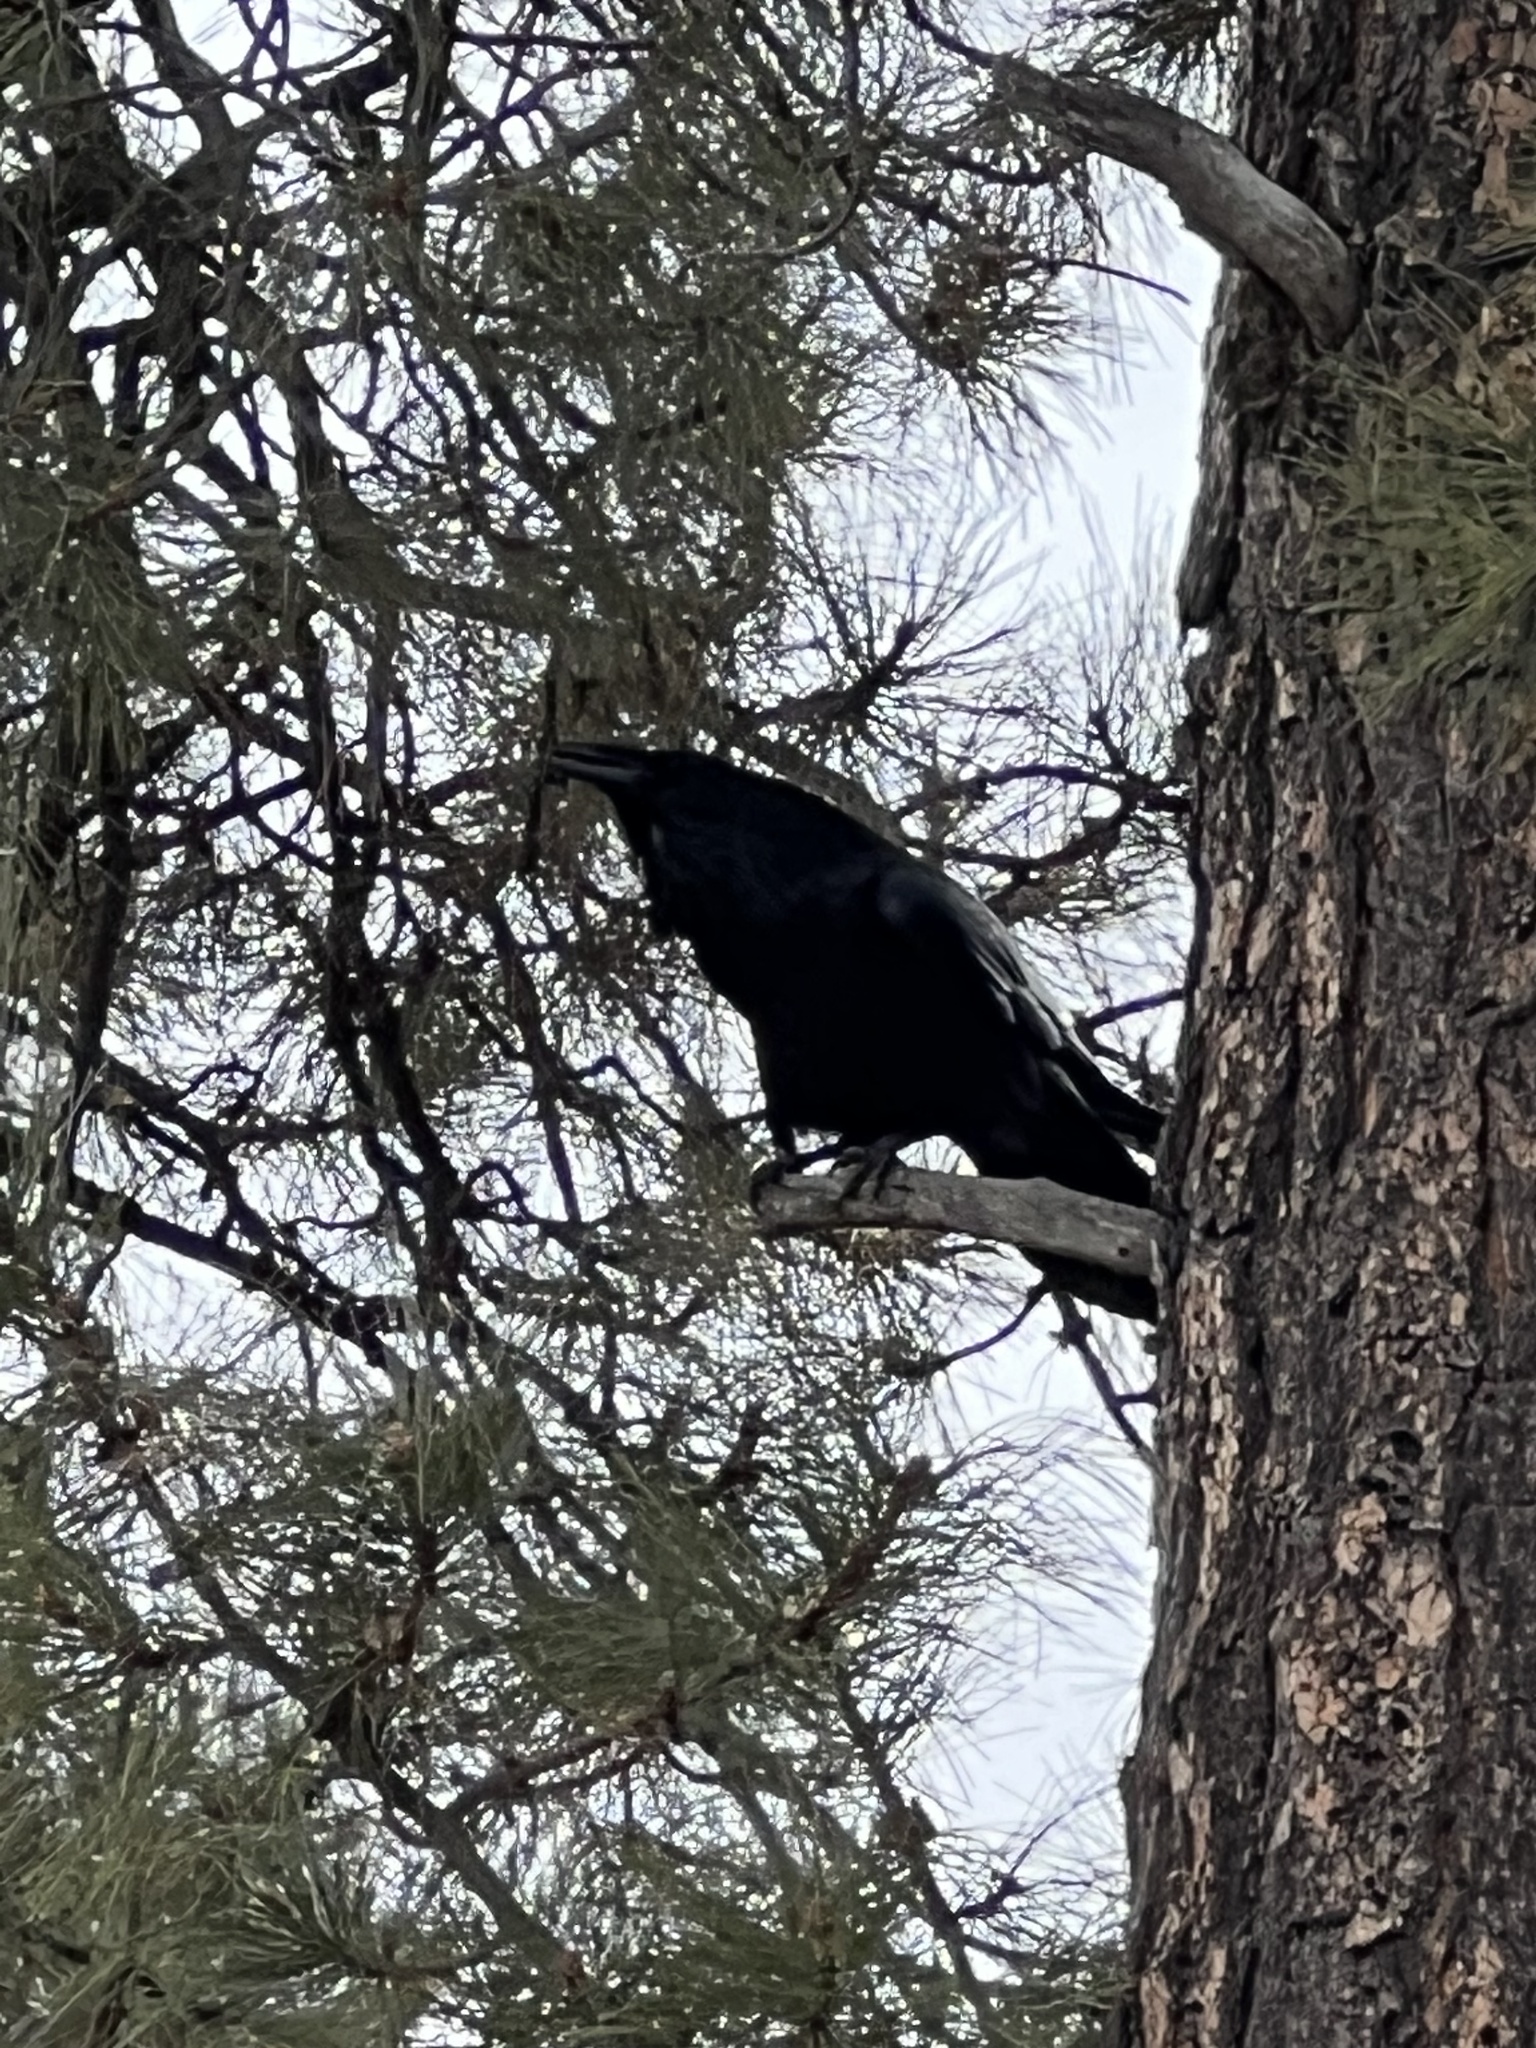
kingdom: Animalia
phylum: Chordata
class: Aves
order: Passeriformes
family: Corvidae
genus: Corvus
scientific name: Corvus corax
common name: Common raven
